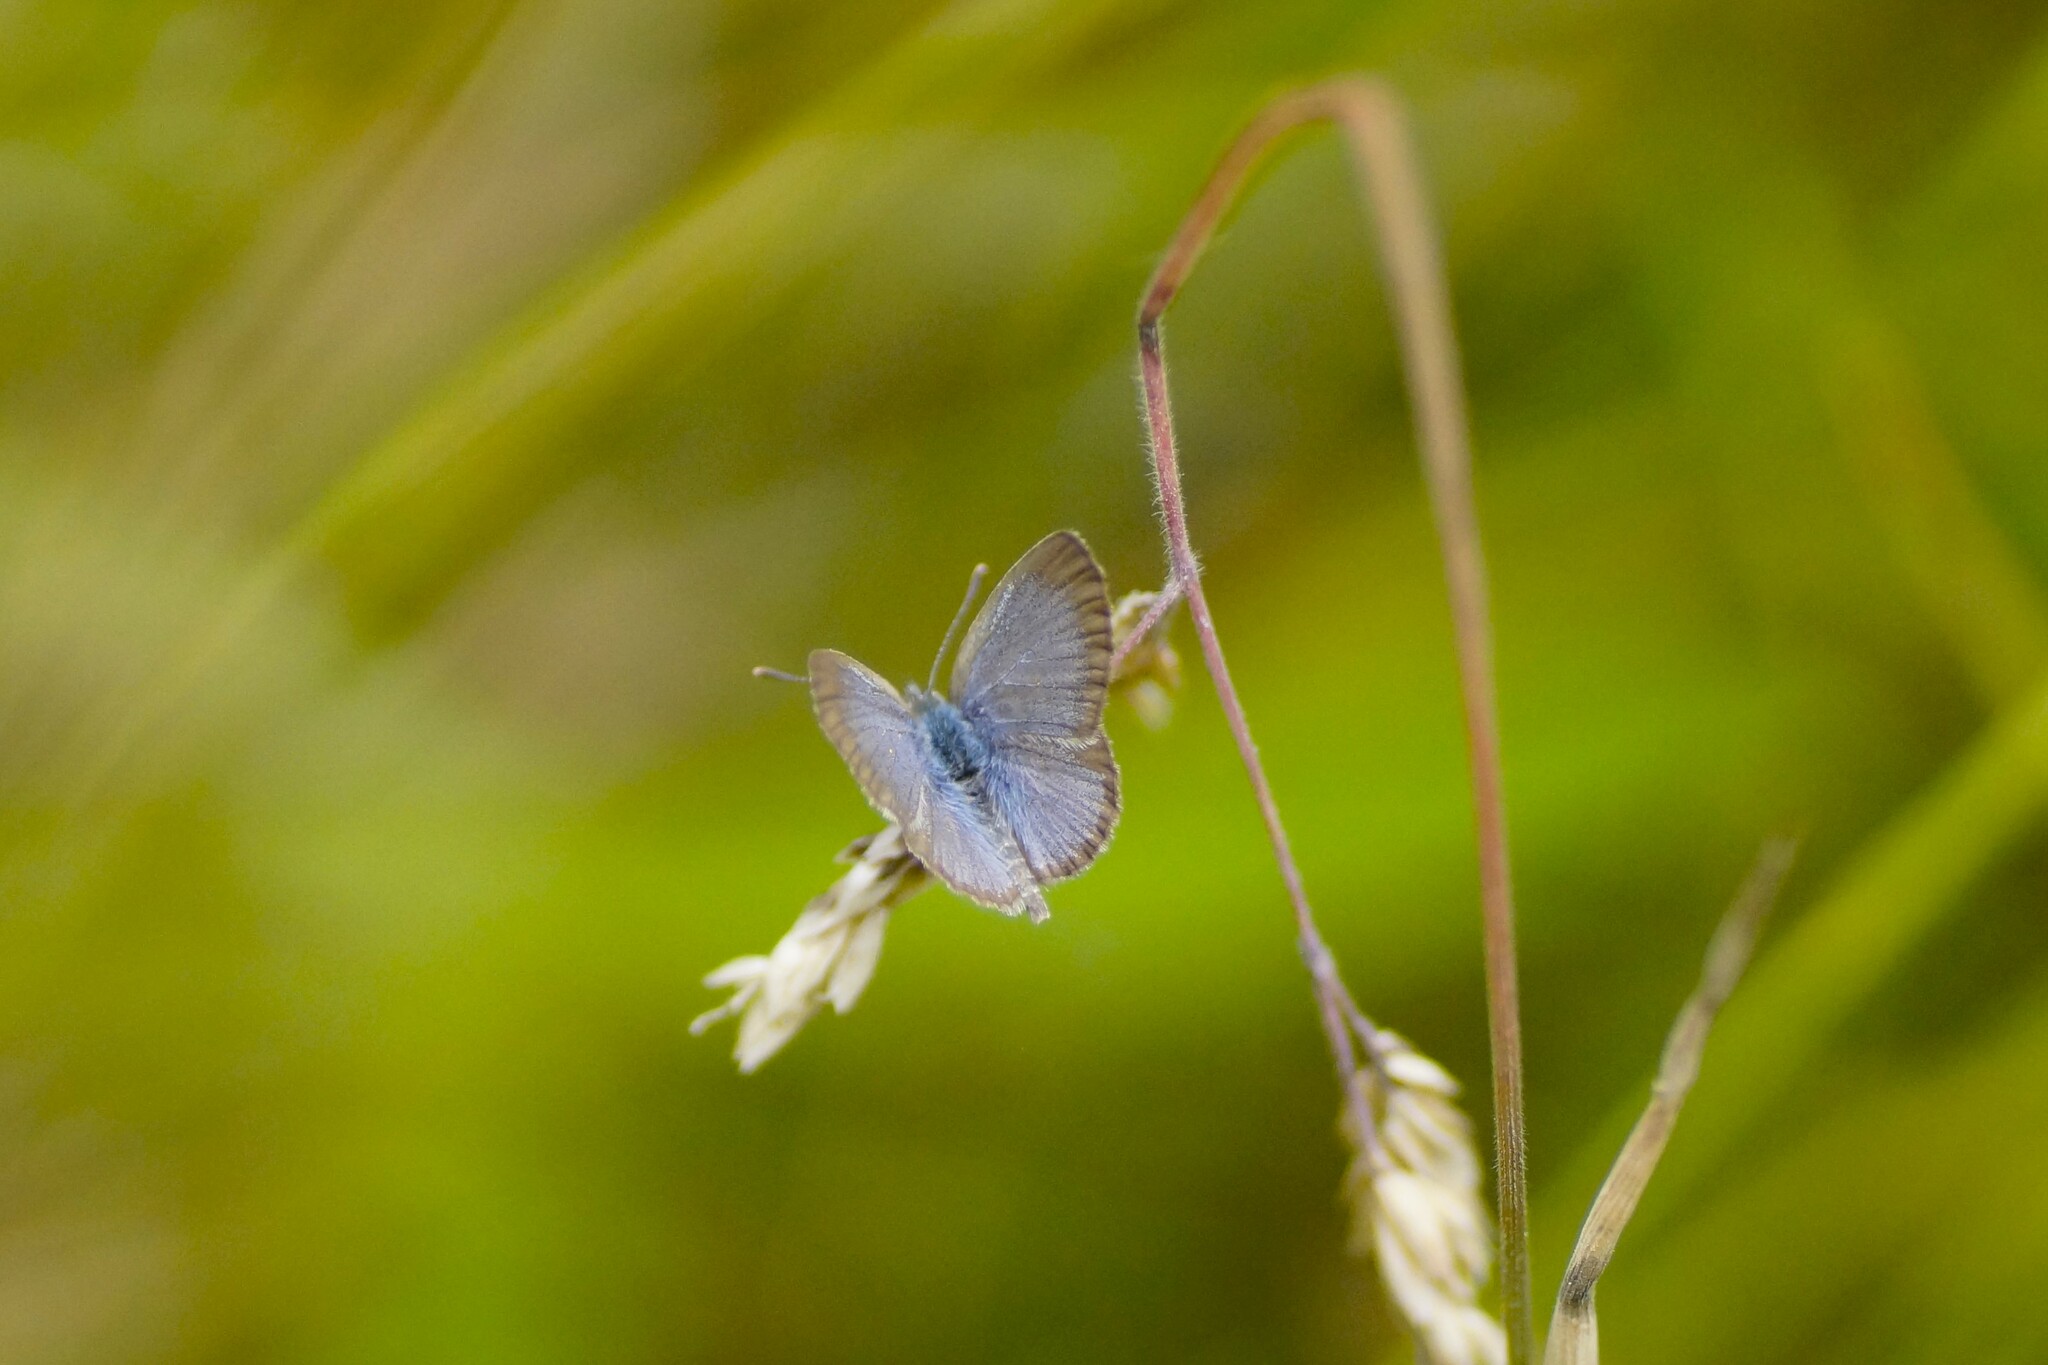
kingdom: Animalia
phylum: Arthropoda
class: Insecta
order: Lepidoptera
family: Lycaenidae
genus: Zizina
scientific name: Zizina otis
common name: Lesser grass blue
